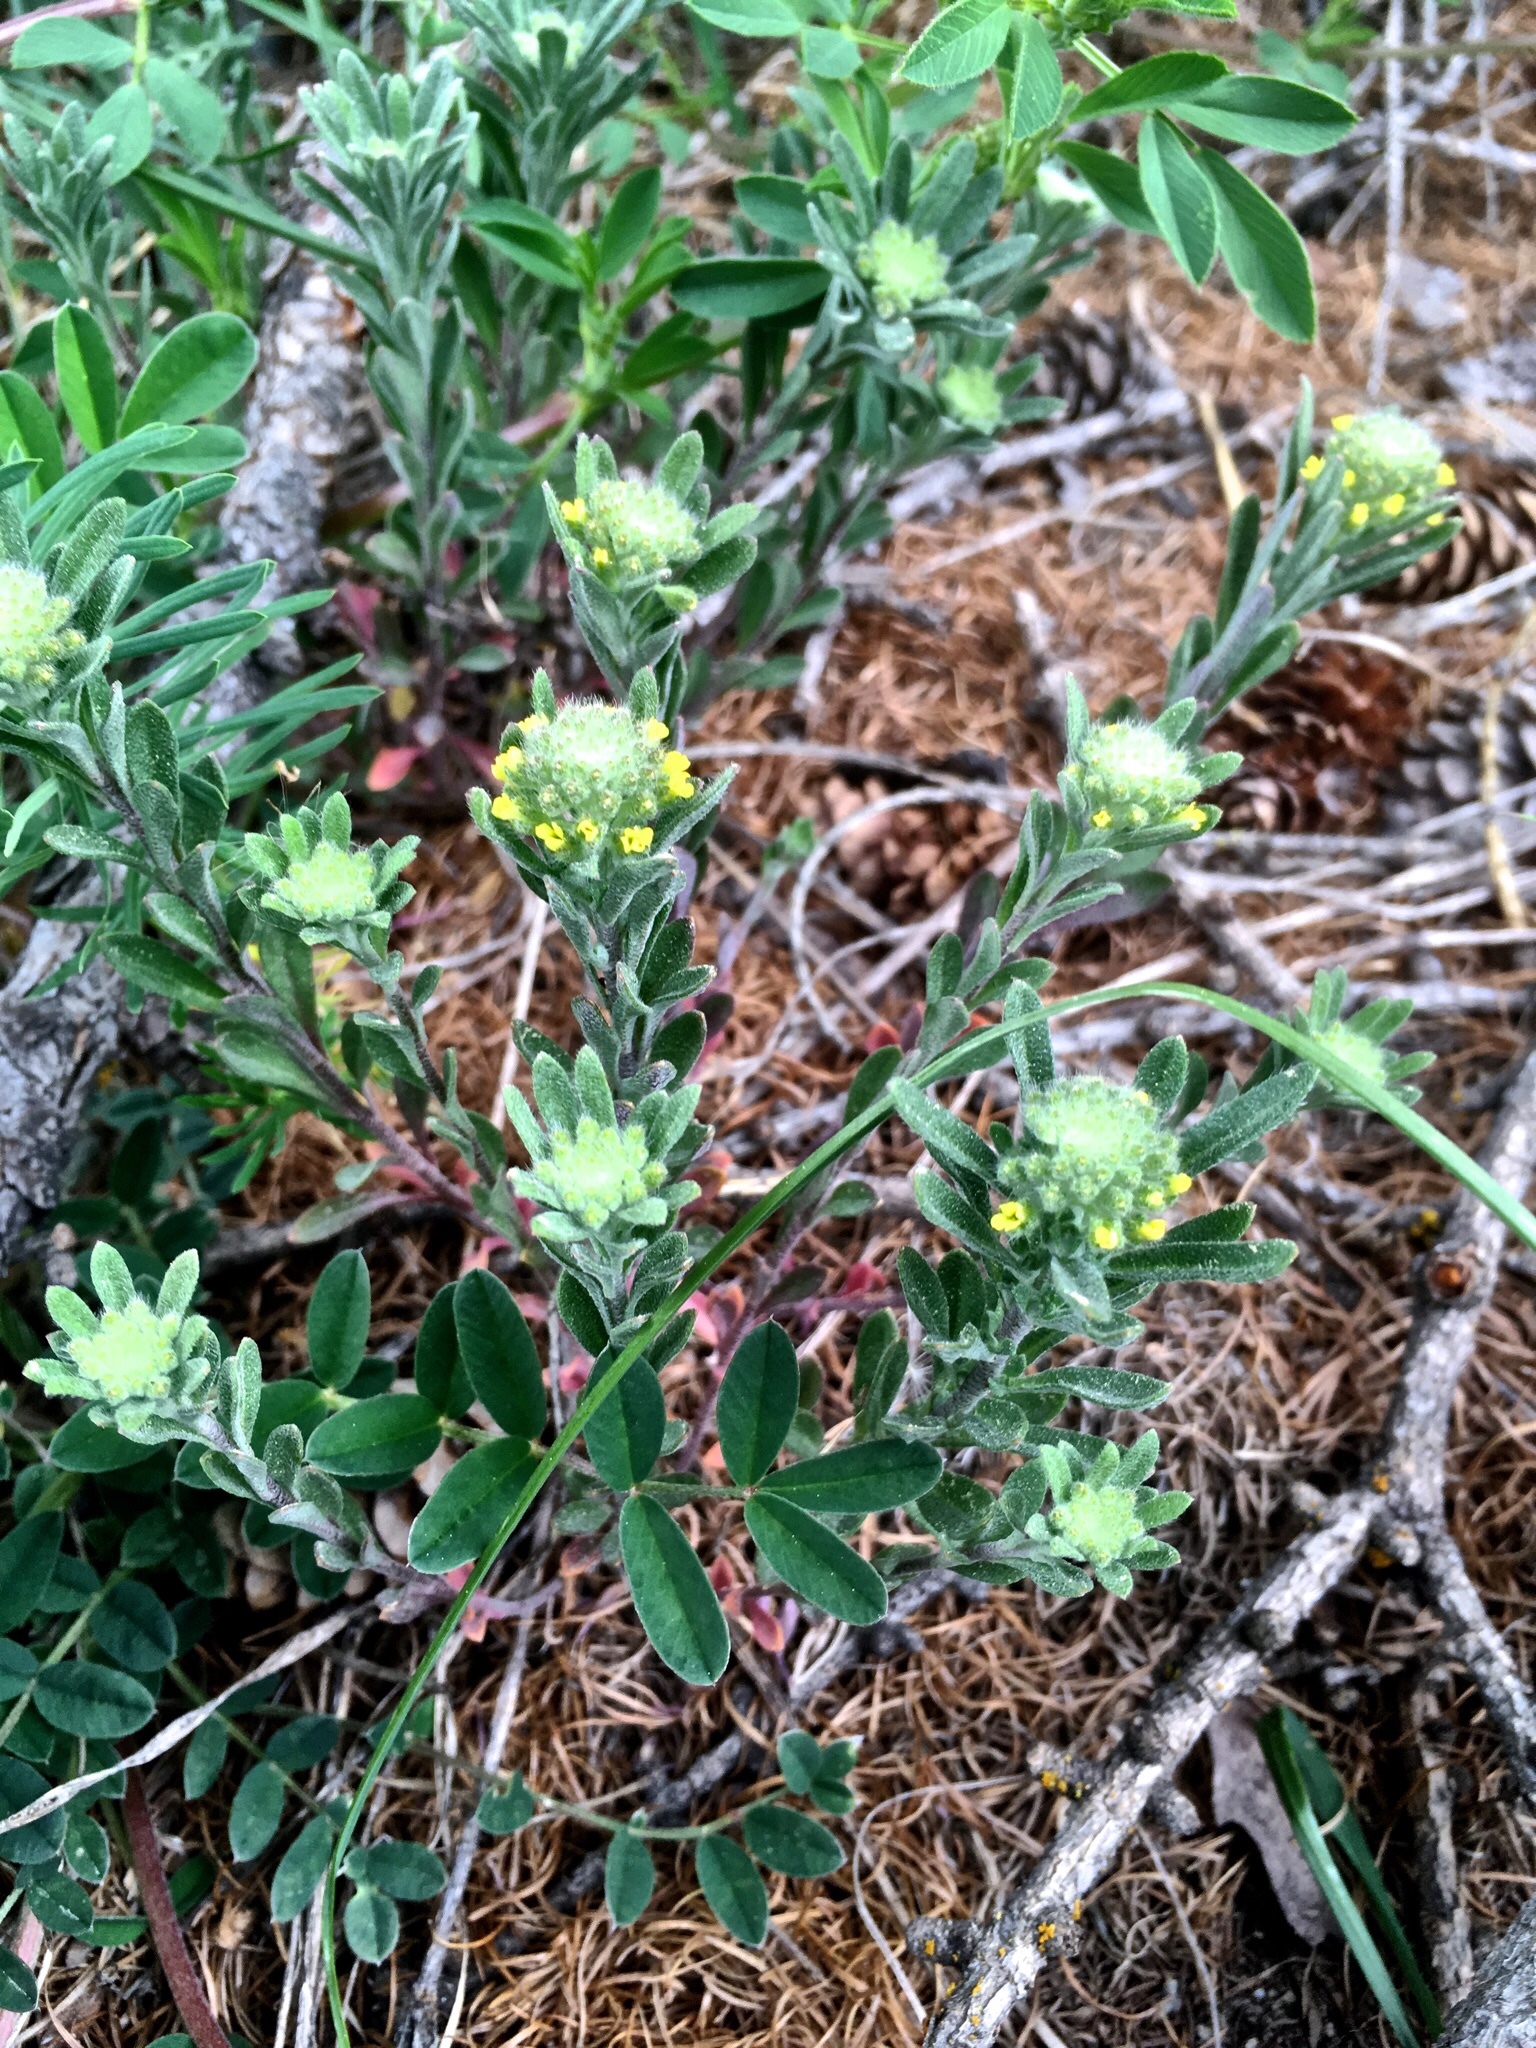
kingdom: Plantae
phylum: Tracheophyta
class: Magnoliopsida
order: Brassicales
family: Brassicaceae
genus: Alyssum
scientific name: Alyssum alyssoides
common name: Small alison
